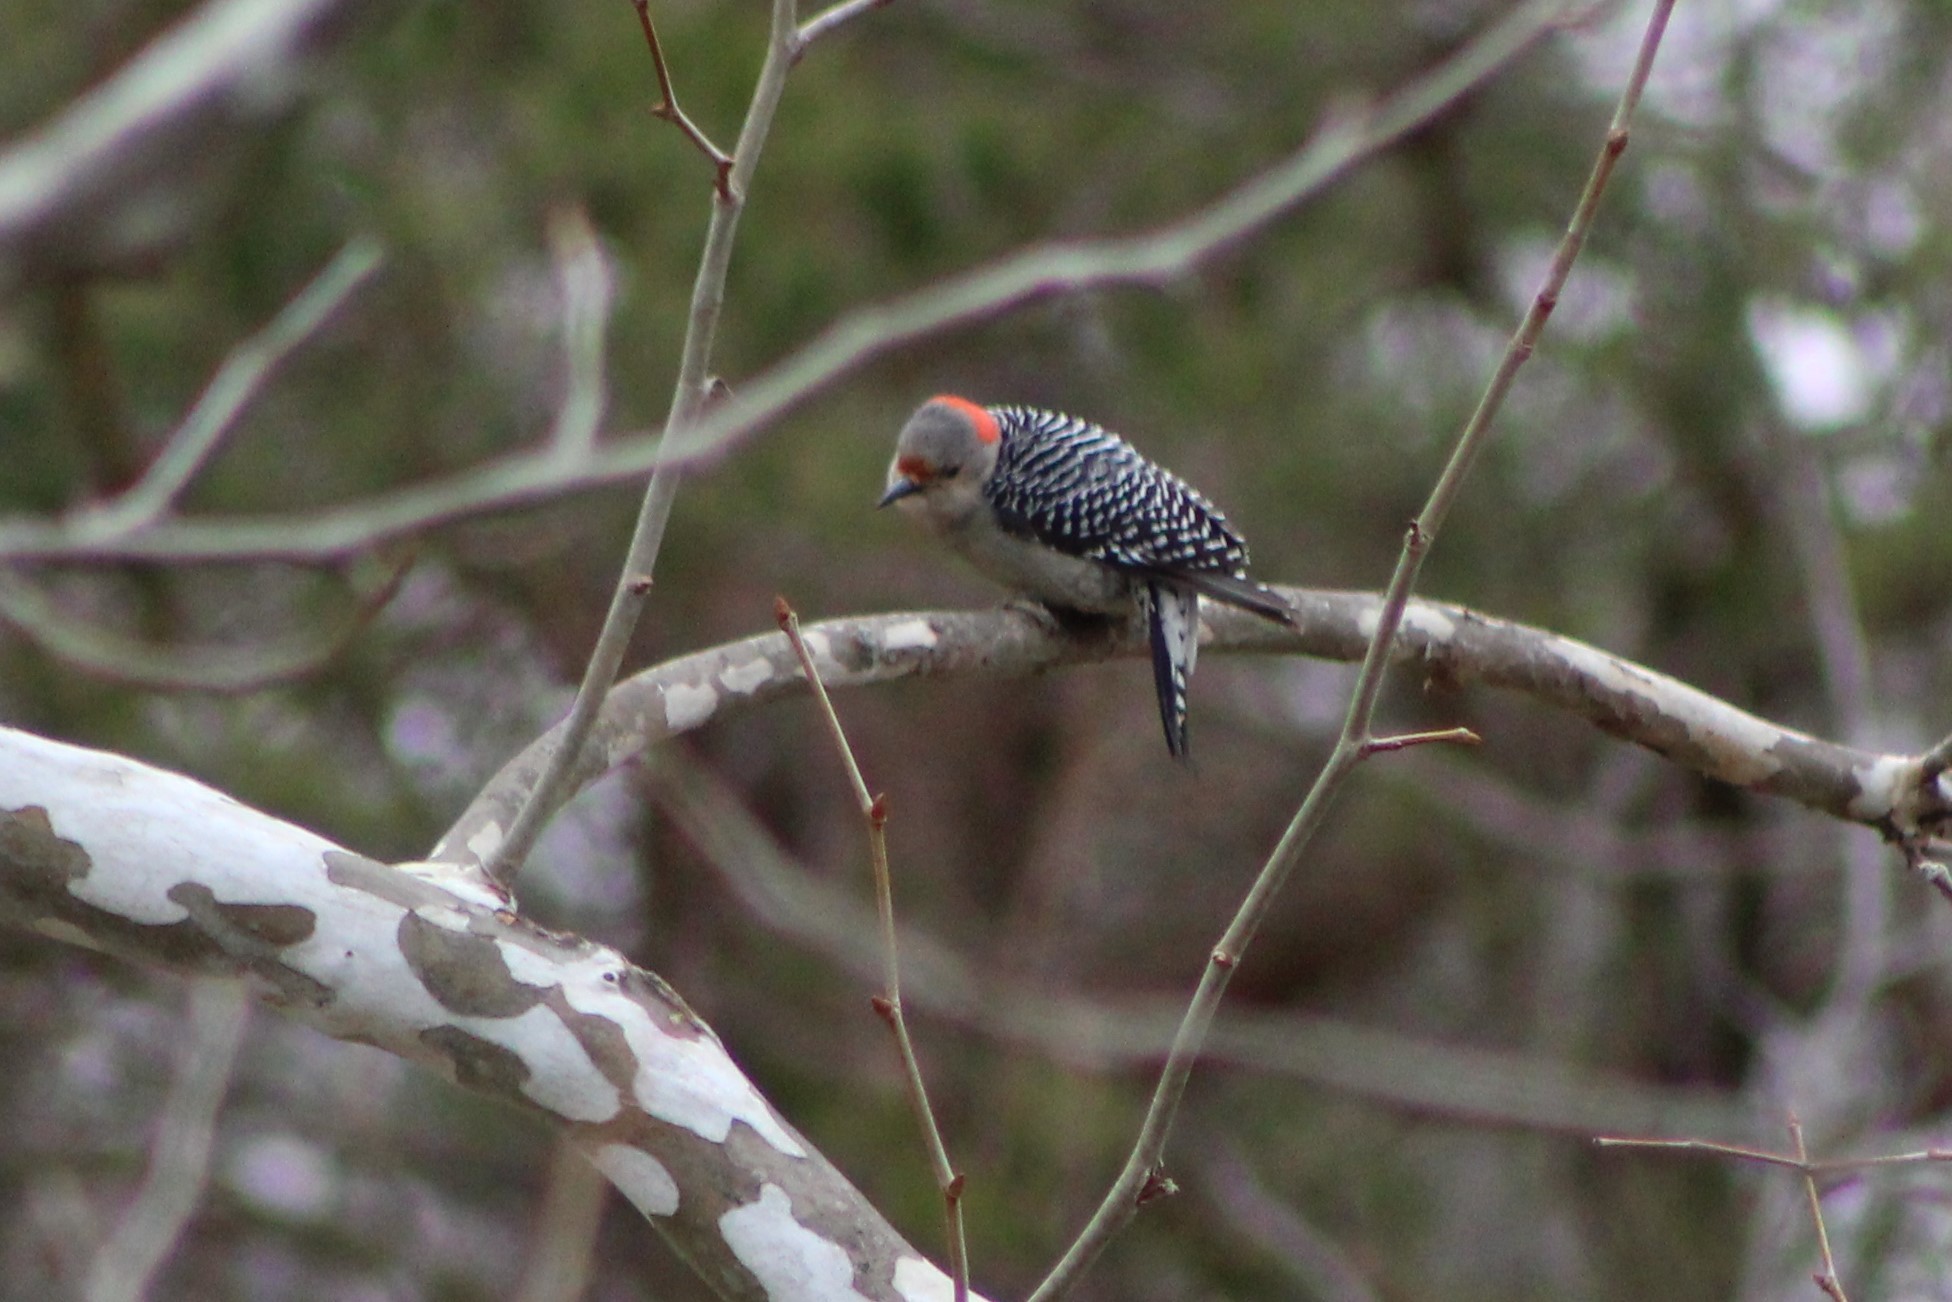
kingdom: Animalia
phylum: Chordata
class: Aves
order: Piciformes
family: Picidae
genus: Melanerpes
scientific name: Melanerpes carolinus
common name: Red-bellied woodpecker
